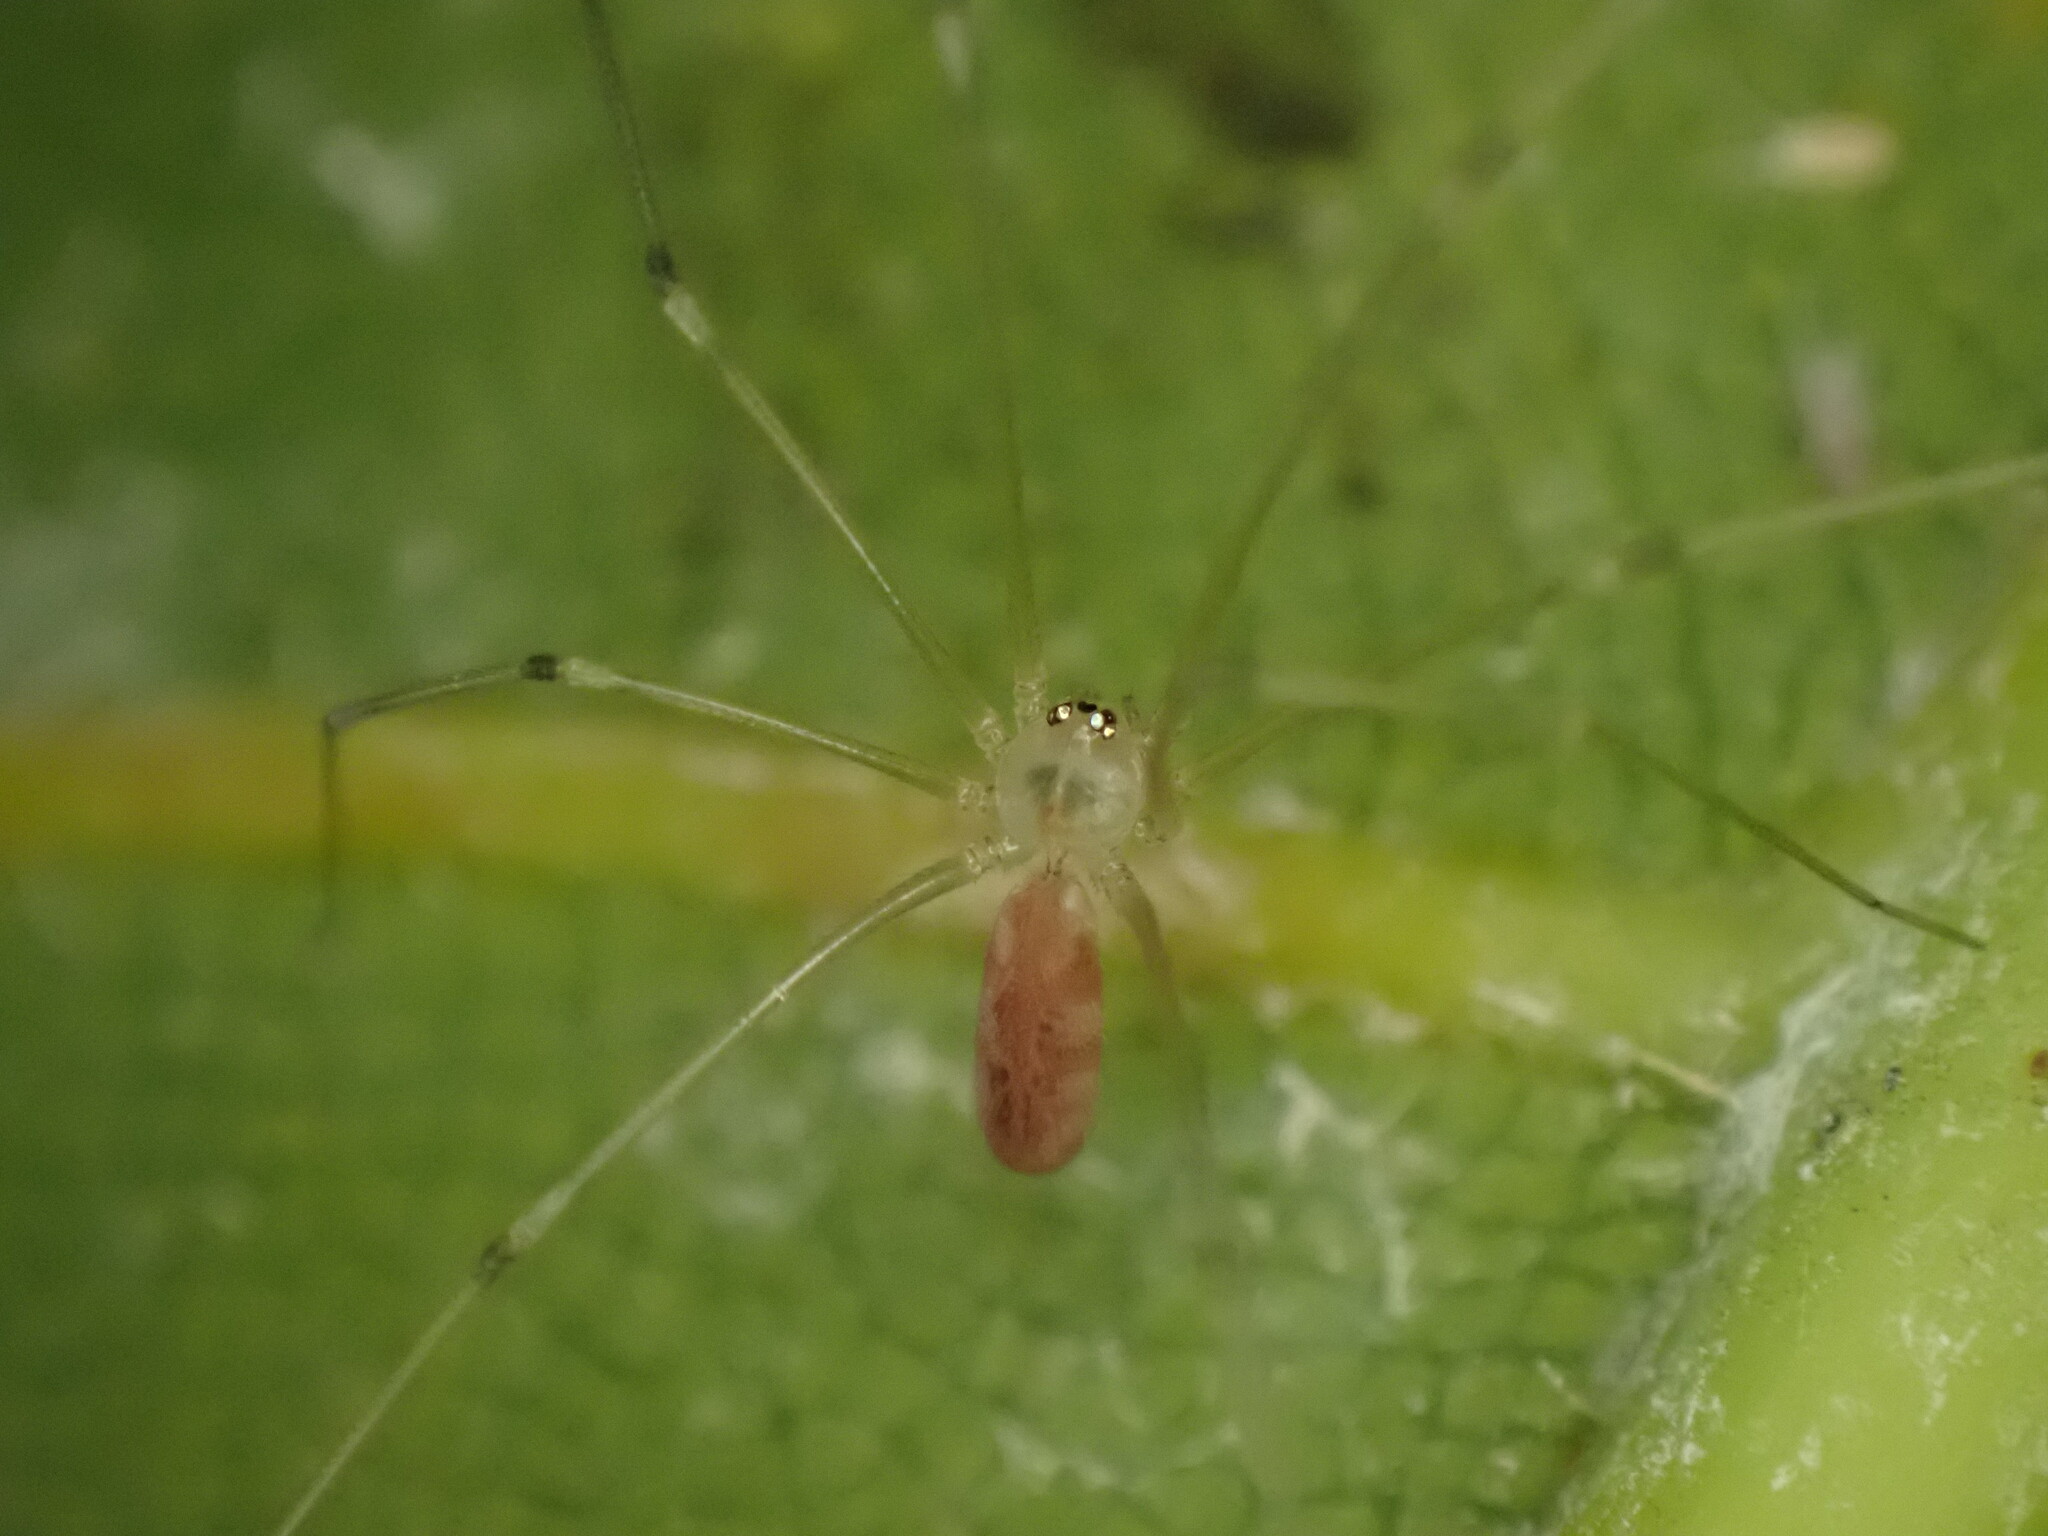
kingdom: Animalia
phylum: Arthropoda
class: Arachnida
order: Araneae
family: Pholcidae
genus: Pholcus
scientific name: Pholcus phalangioides
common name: Longbodied cellar spider
